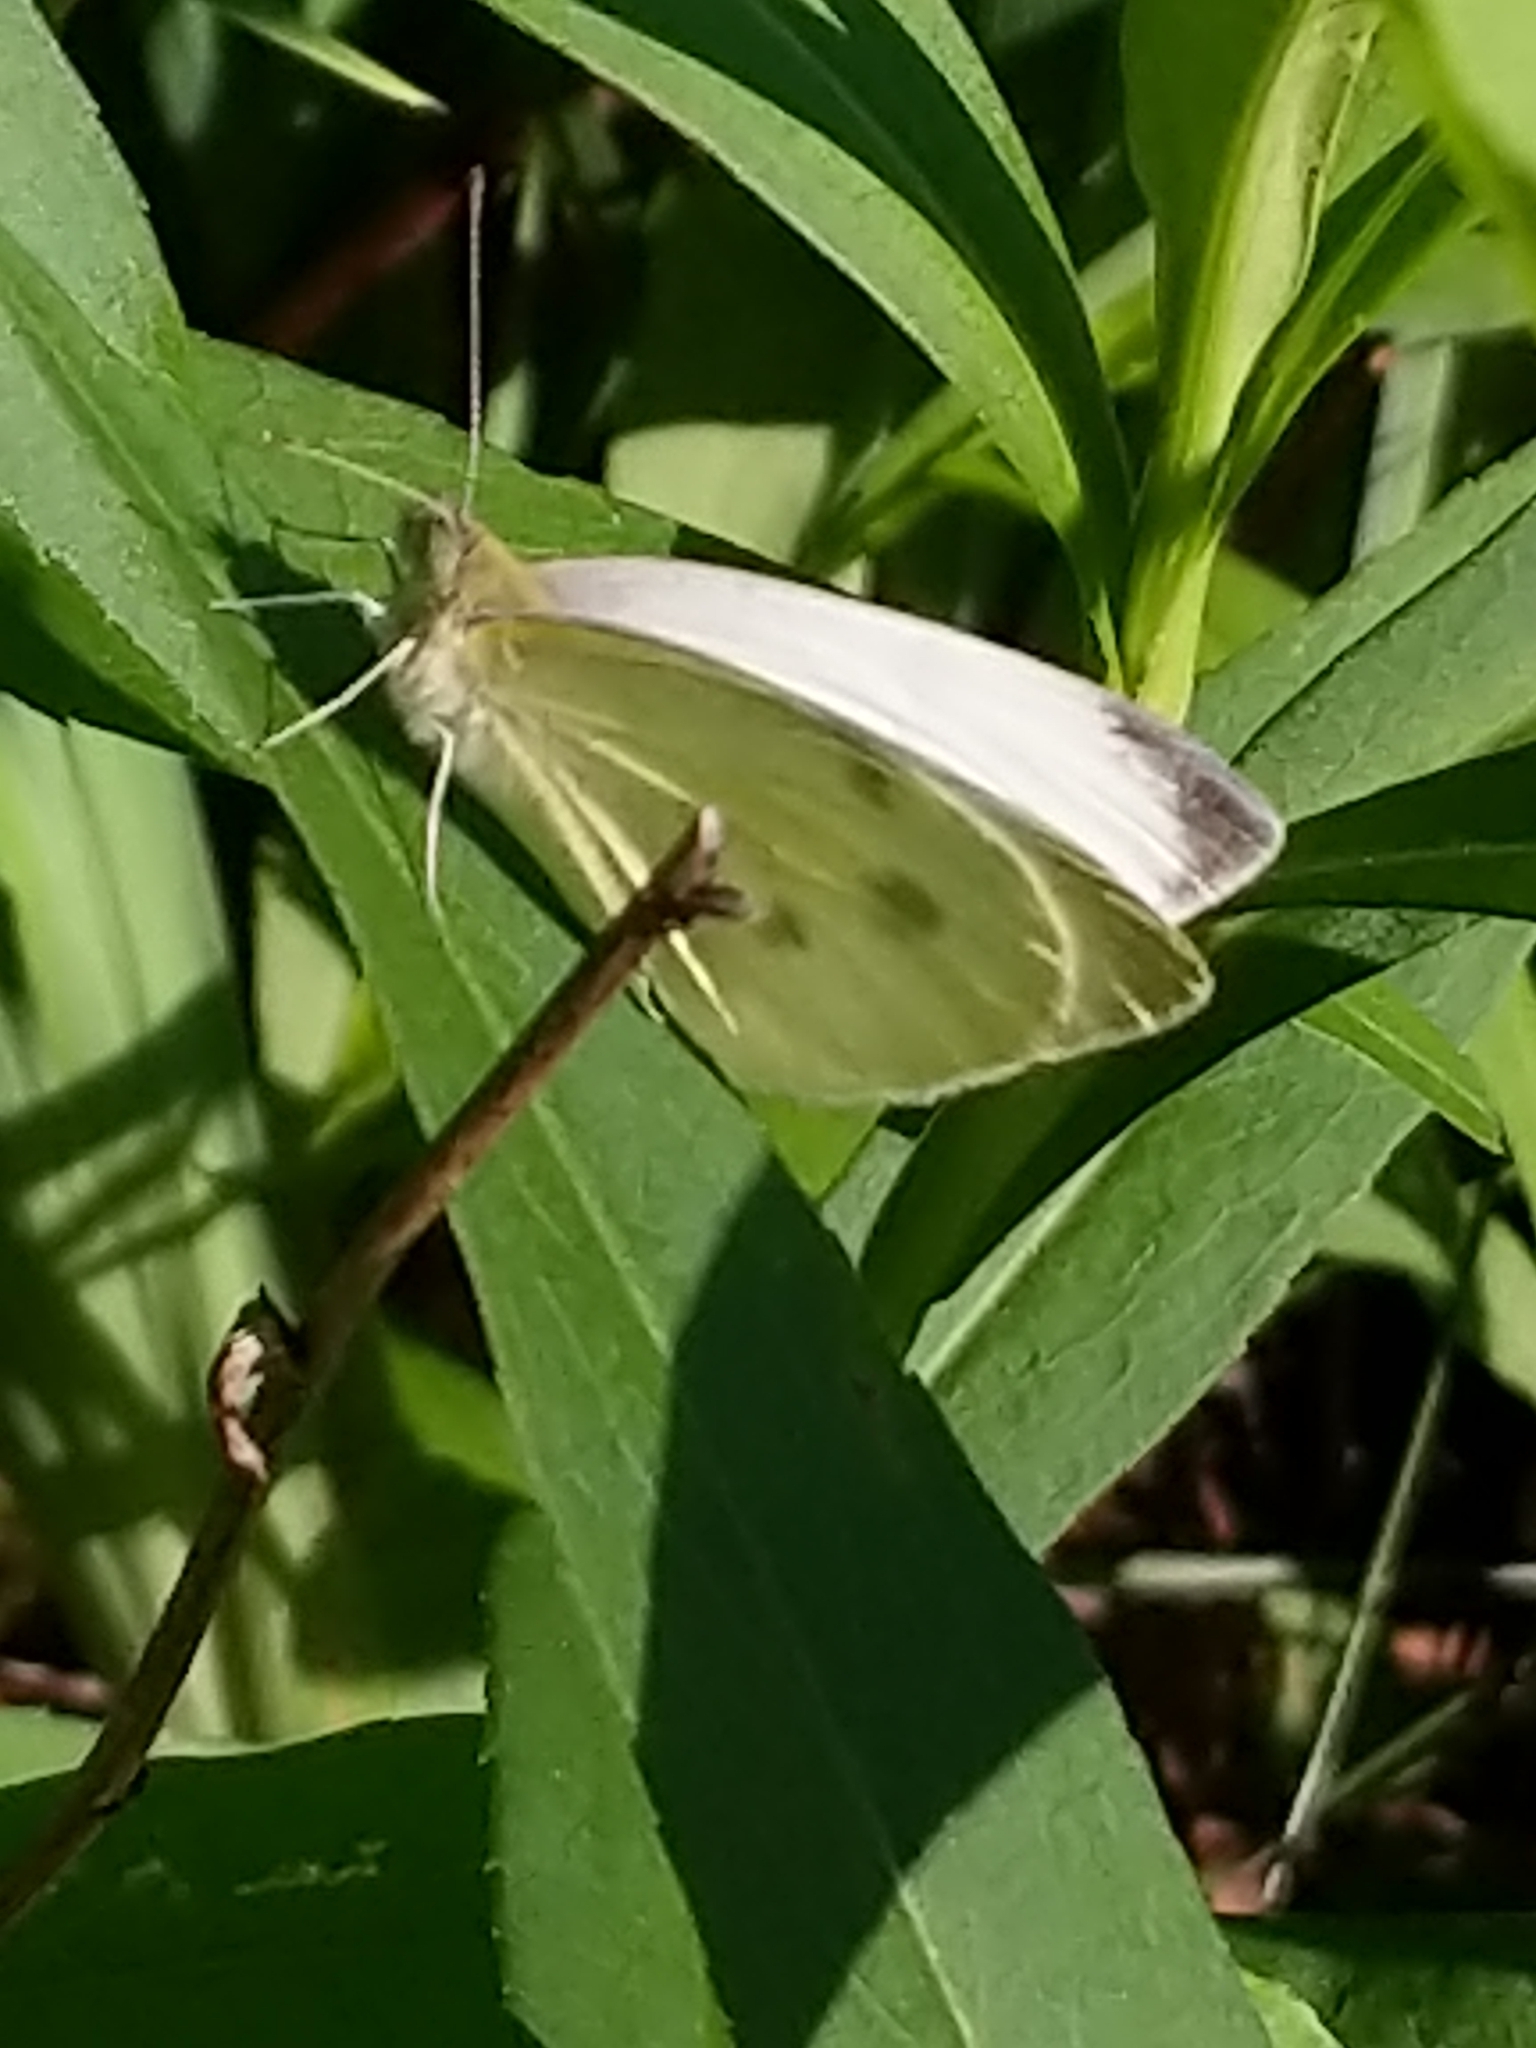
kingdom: Animalia
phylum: Arthropoda
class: Insecta
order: Lepidoptera
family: Pieridae
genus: Pieris
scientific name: Pieris rapae
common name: Small white
